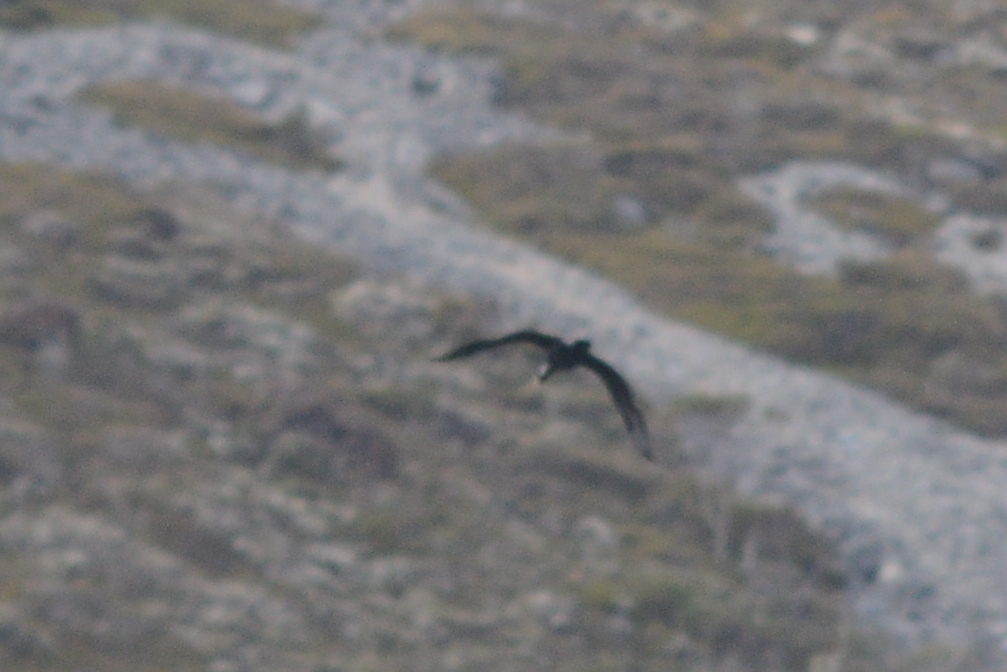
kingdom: Animalia
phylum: Chordata
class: Aves
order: Suliformes
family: Phalacrocoracidae
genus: Phalacrocorax
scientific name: Phalacrocorax carbo
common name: Great cormorant
